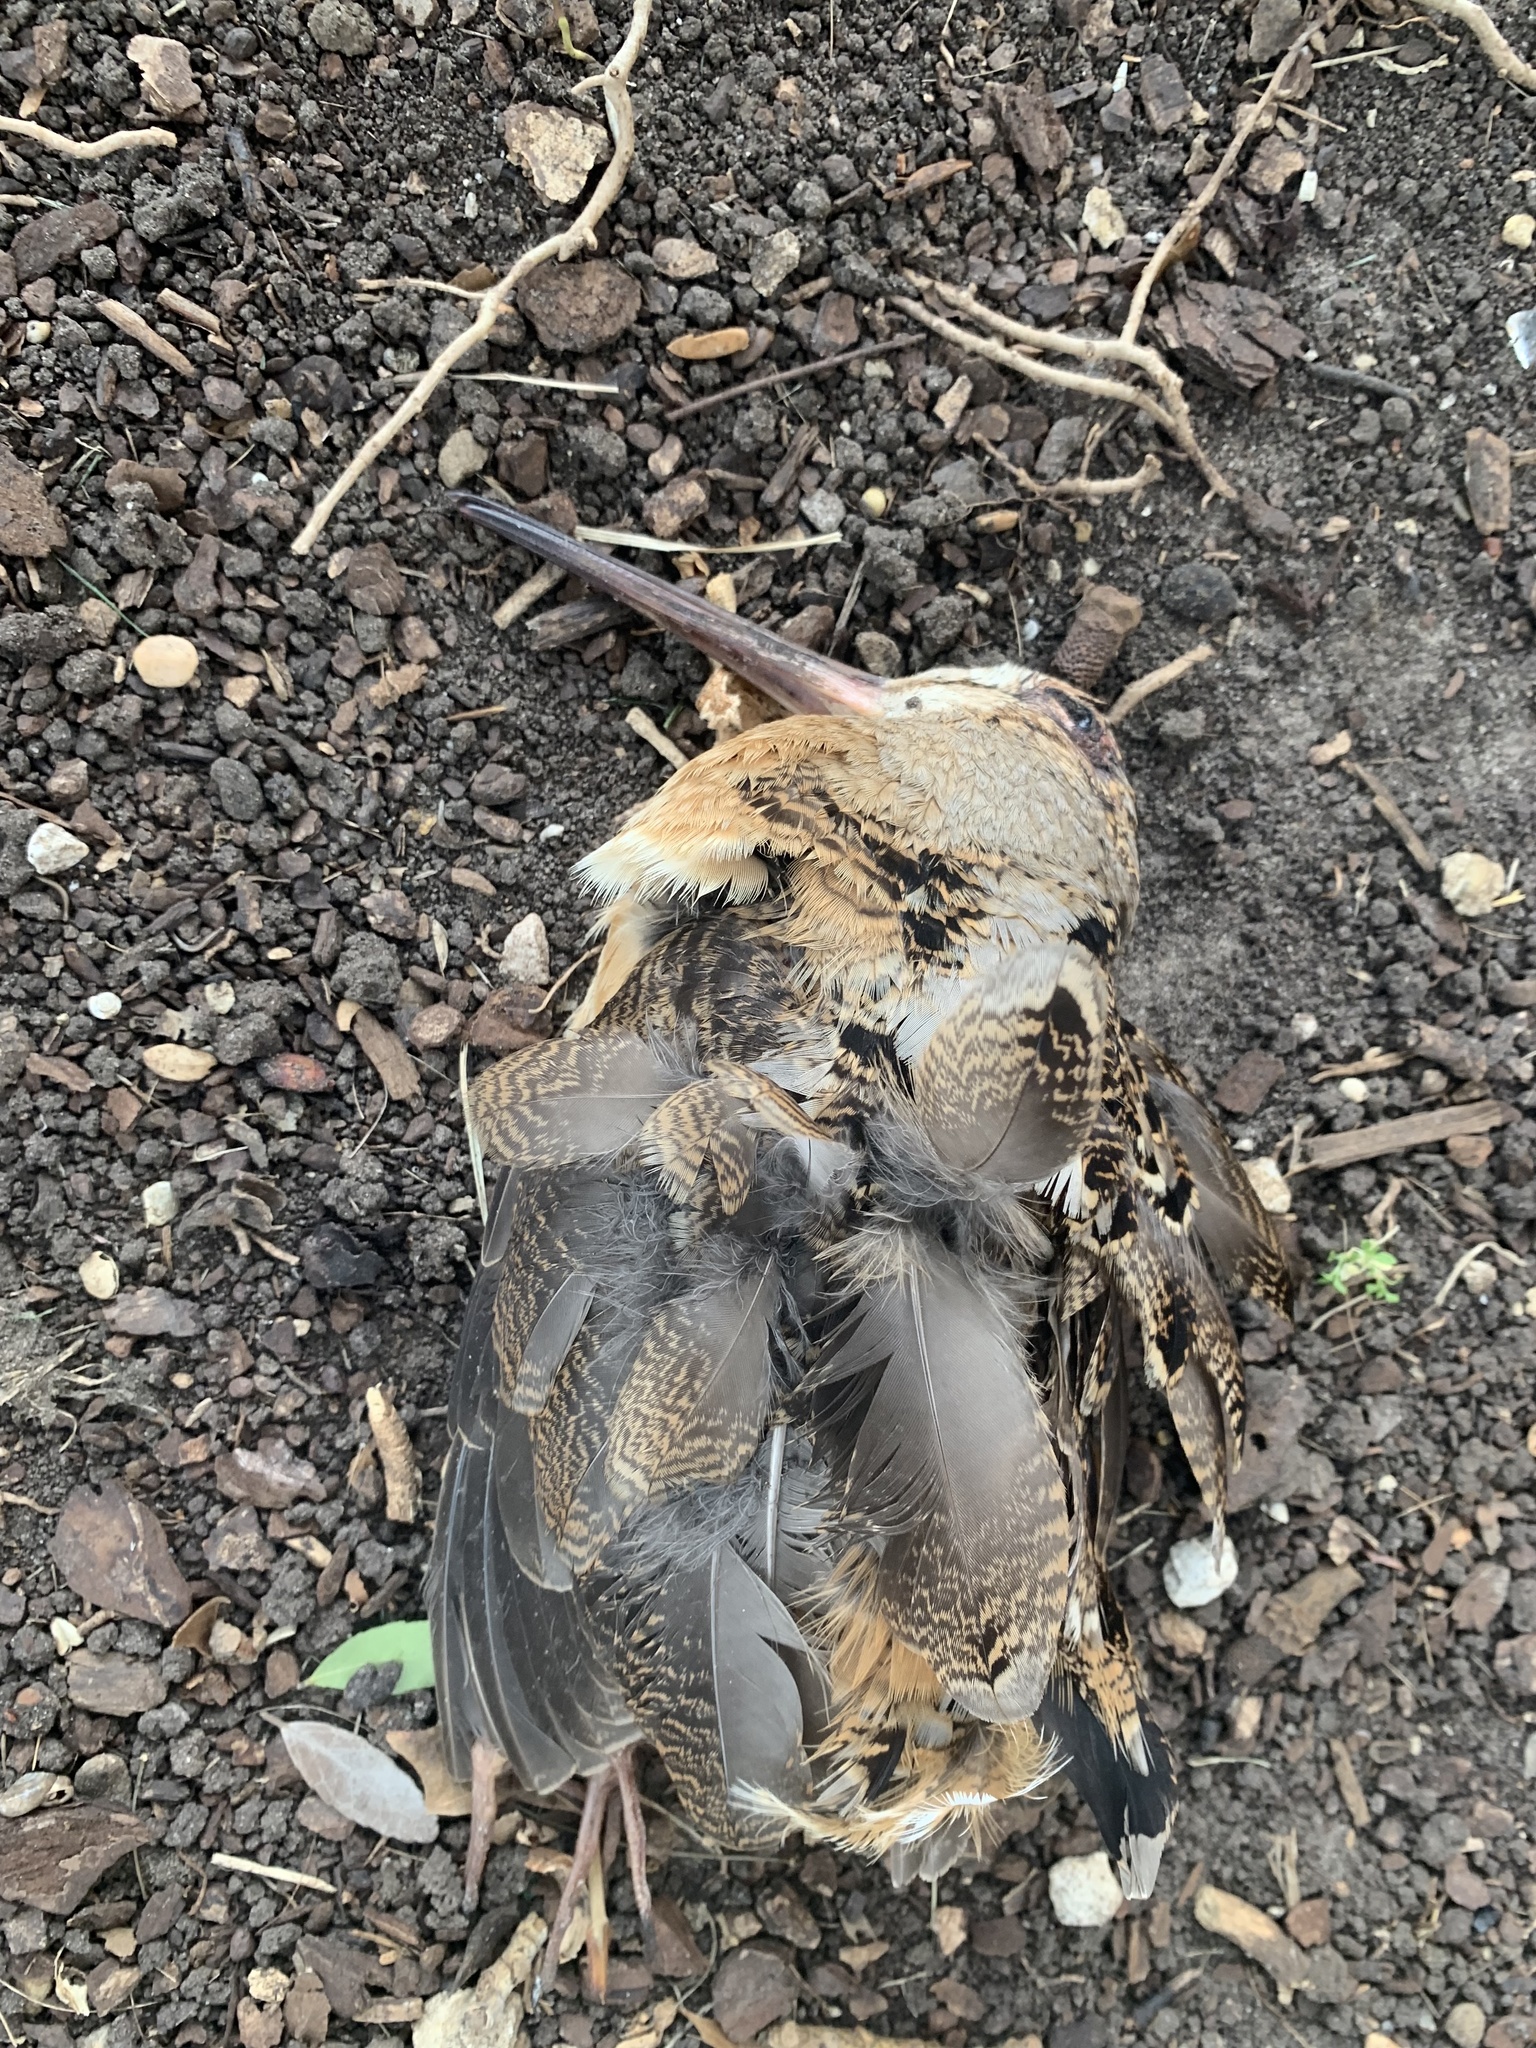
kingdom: Animalia
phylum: Chordata
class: Aves
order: Charadriiformes
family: Scolopacidae
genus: Scolopax
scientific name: Scolopax minor
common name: American woodcock
